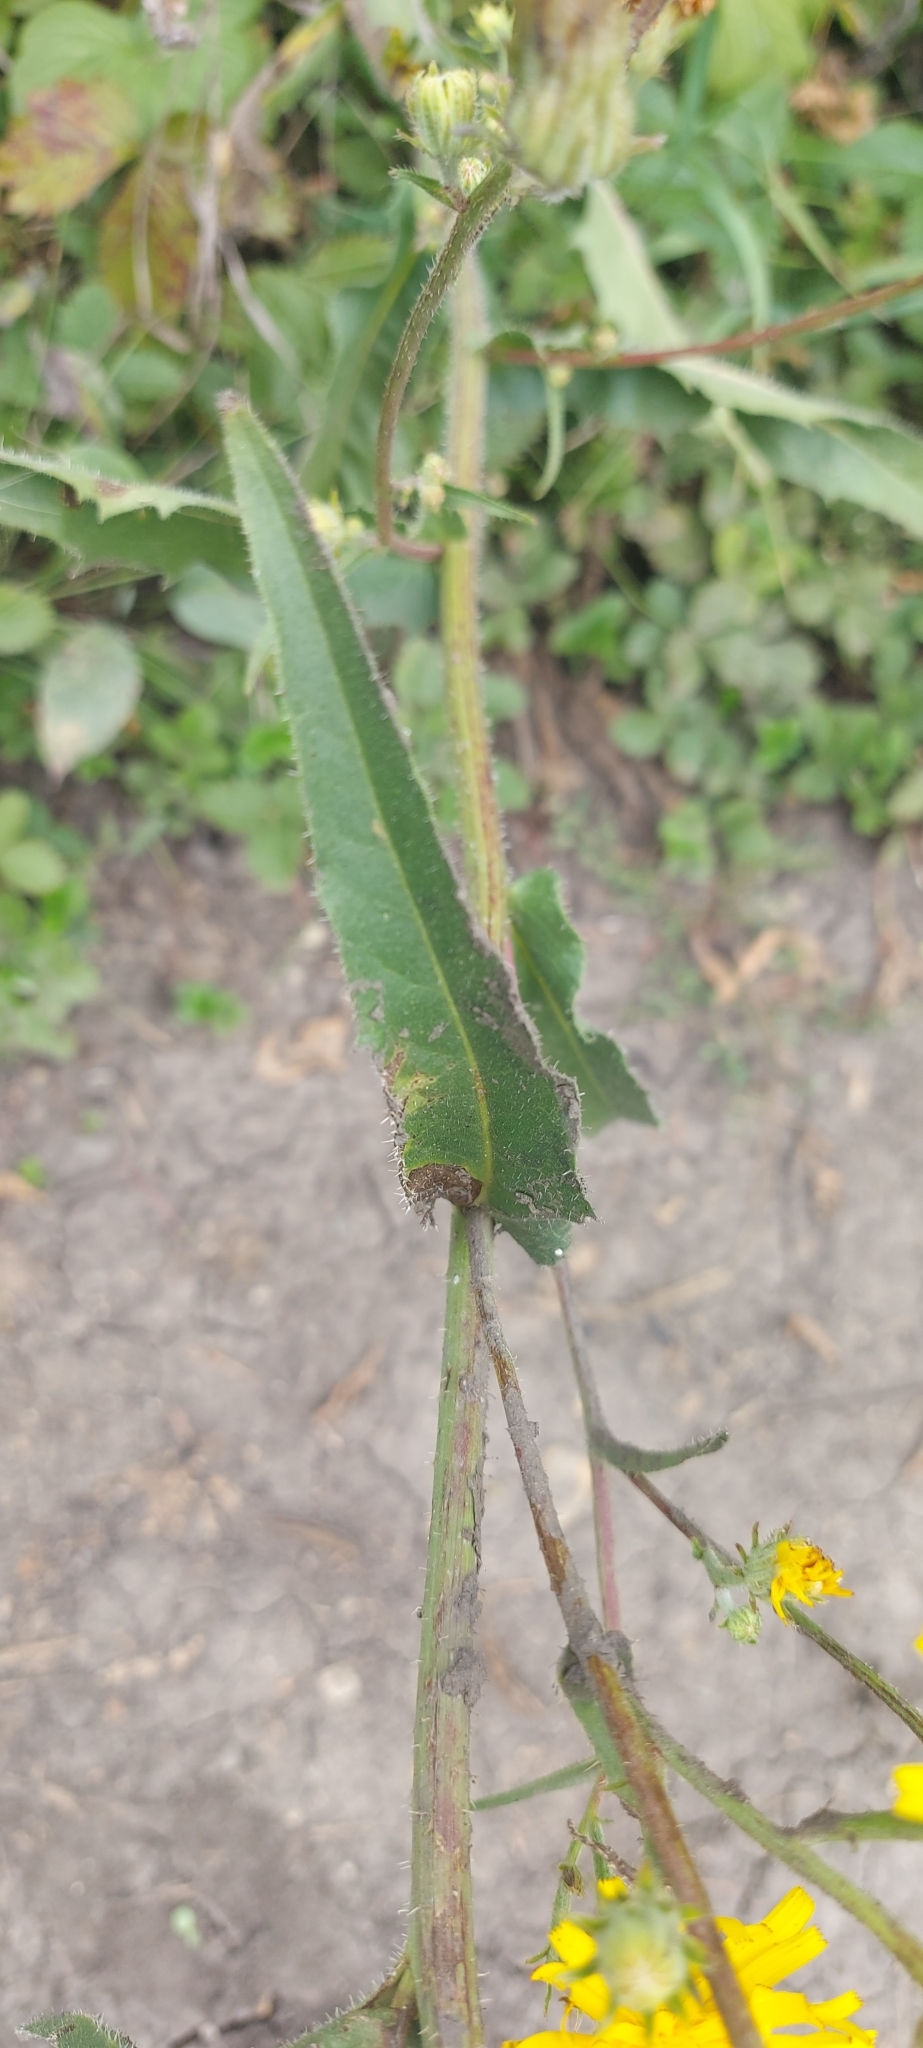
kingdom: Plantae
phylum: Tracheophyta
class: Magnoliopsida
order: Asterales
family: Asteraceae
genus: Picris
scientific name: Picris hieracioides
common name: Hawkweed oxtongue
